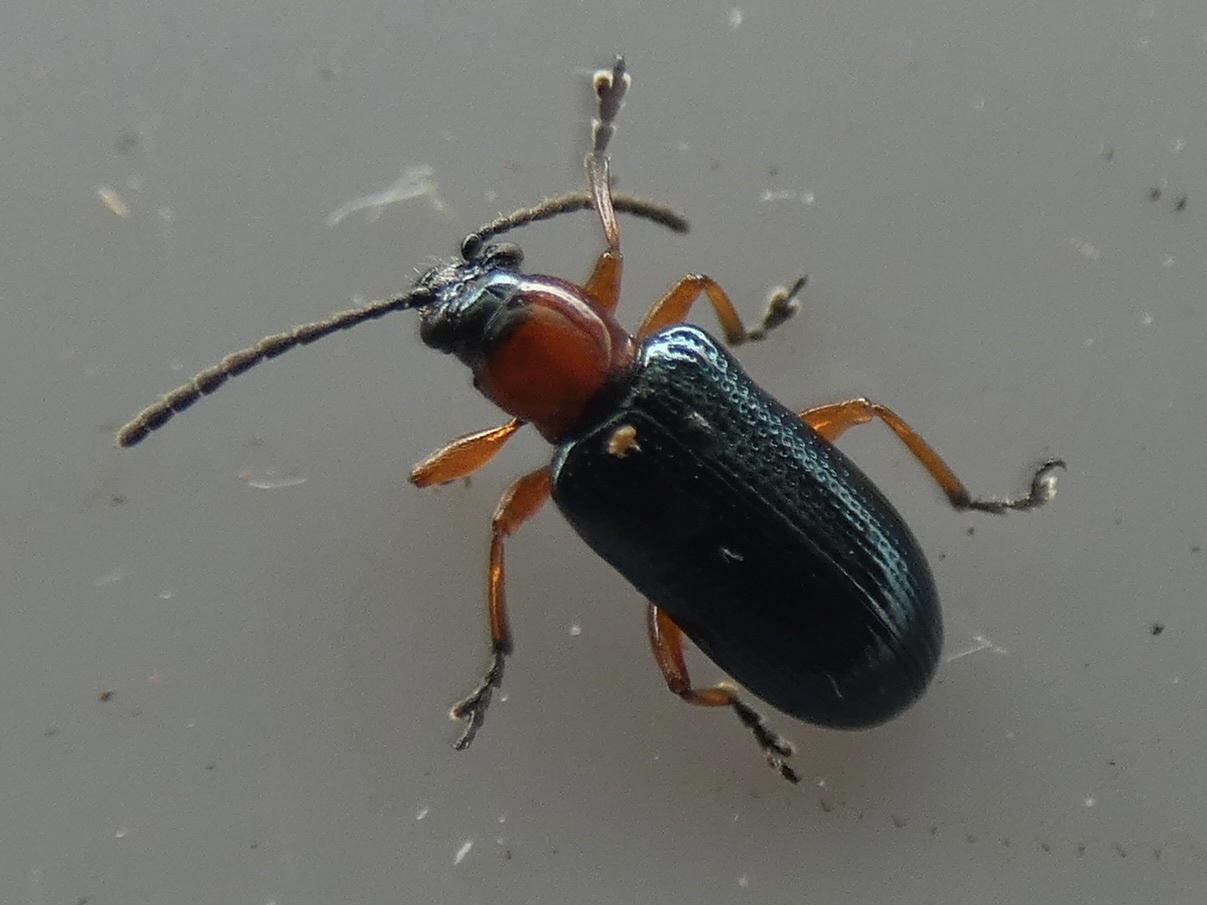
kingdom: Animalia
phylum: Arthropoda
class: Insecta
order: Coleoptera
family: Chrysomelidae
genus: Oulema
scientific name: Oulema
